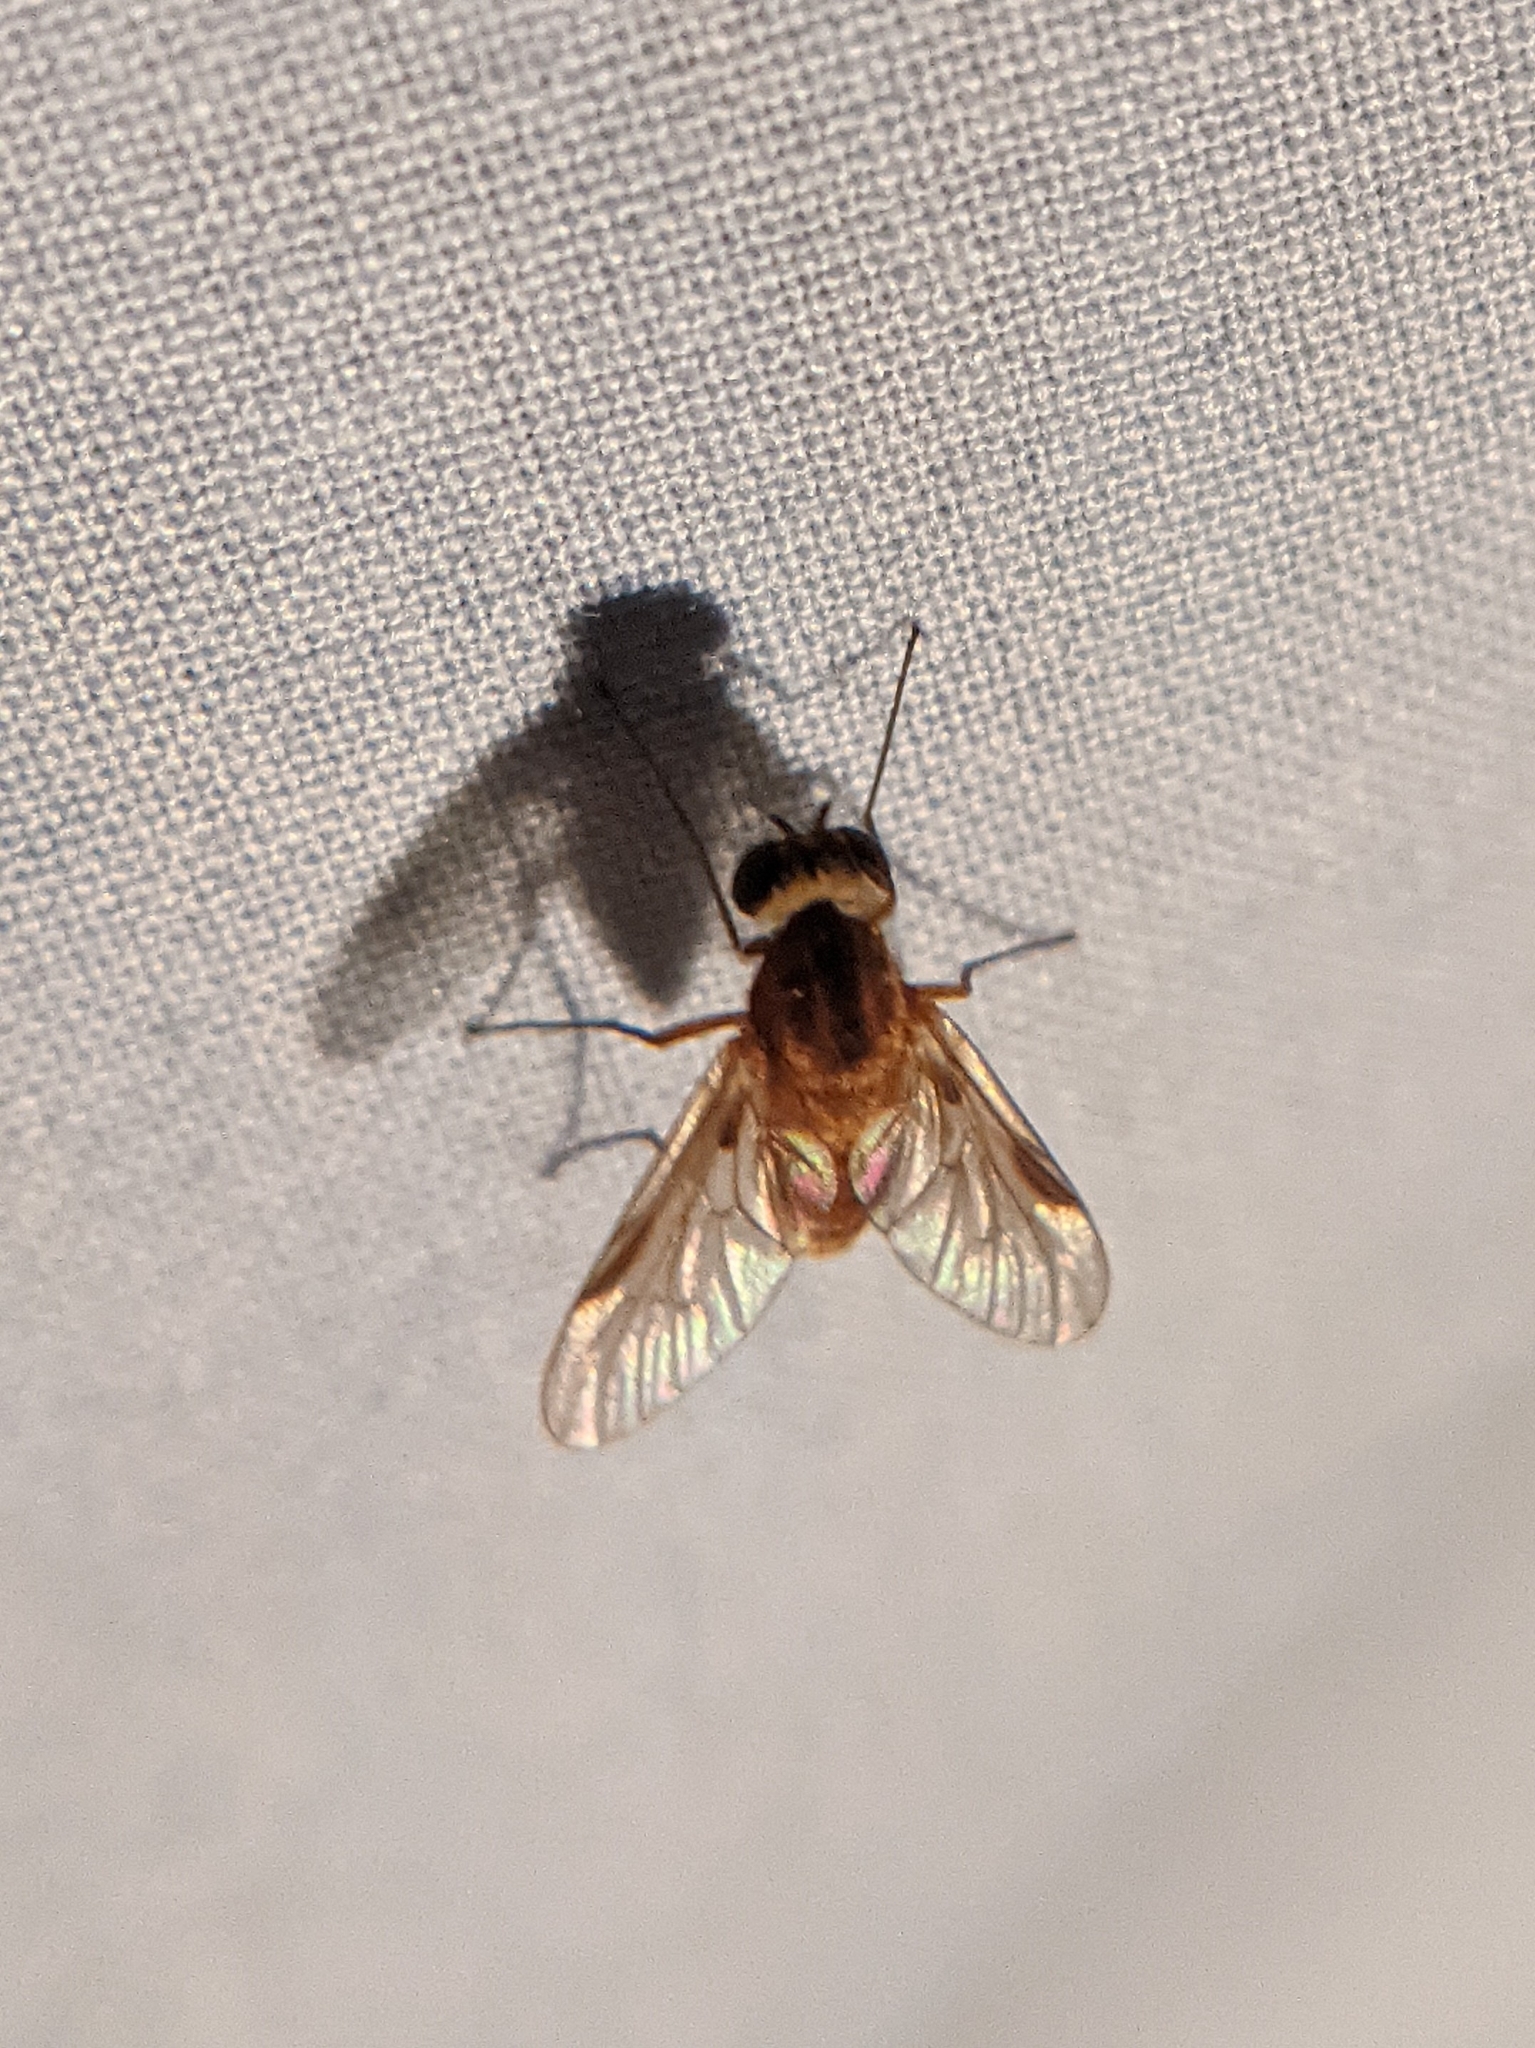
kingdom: Animalia
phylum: Arthropoda
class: Insecta
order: Diptera
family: Rhagionidae
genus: Chrysopilus
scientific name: Chrysopilus quadratus
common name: Quadrate snipe fly
